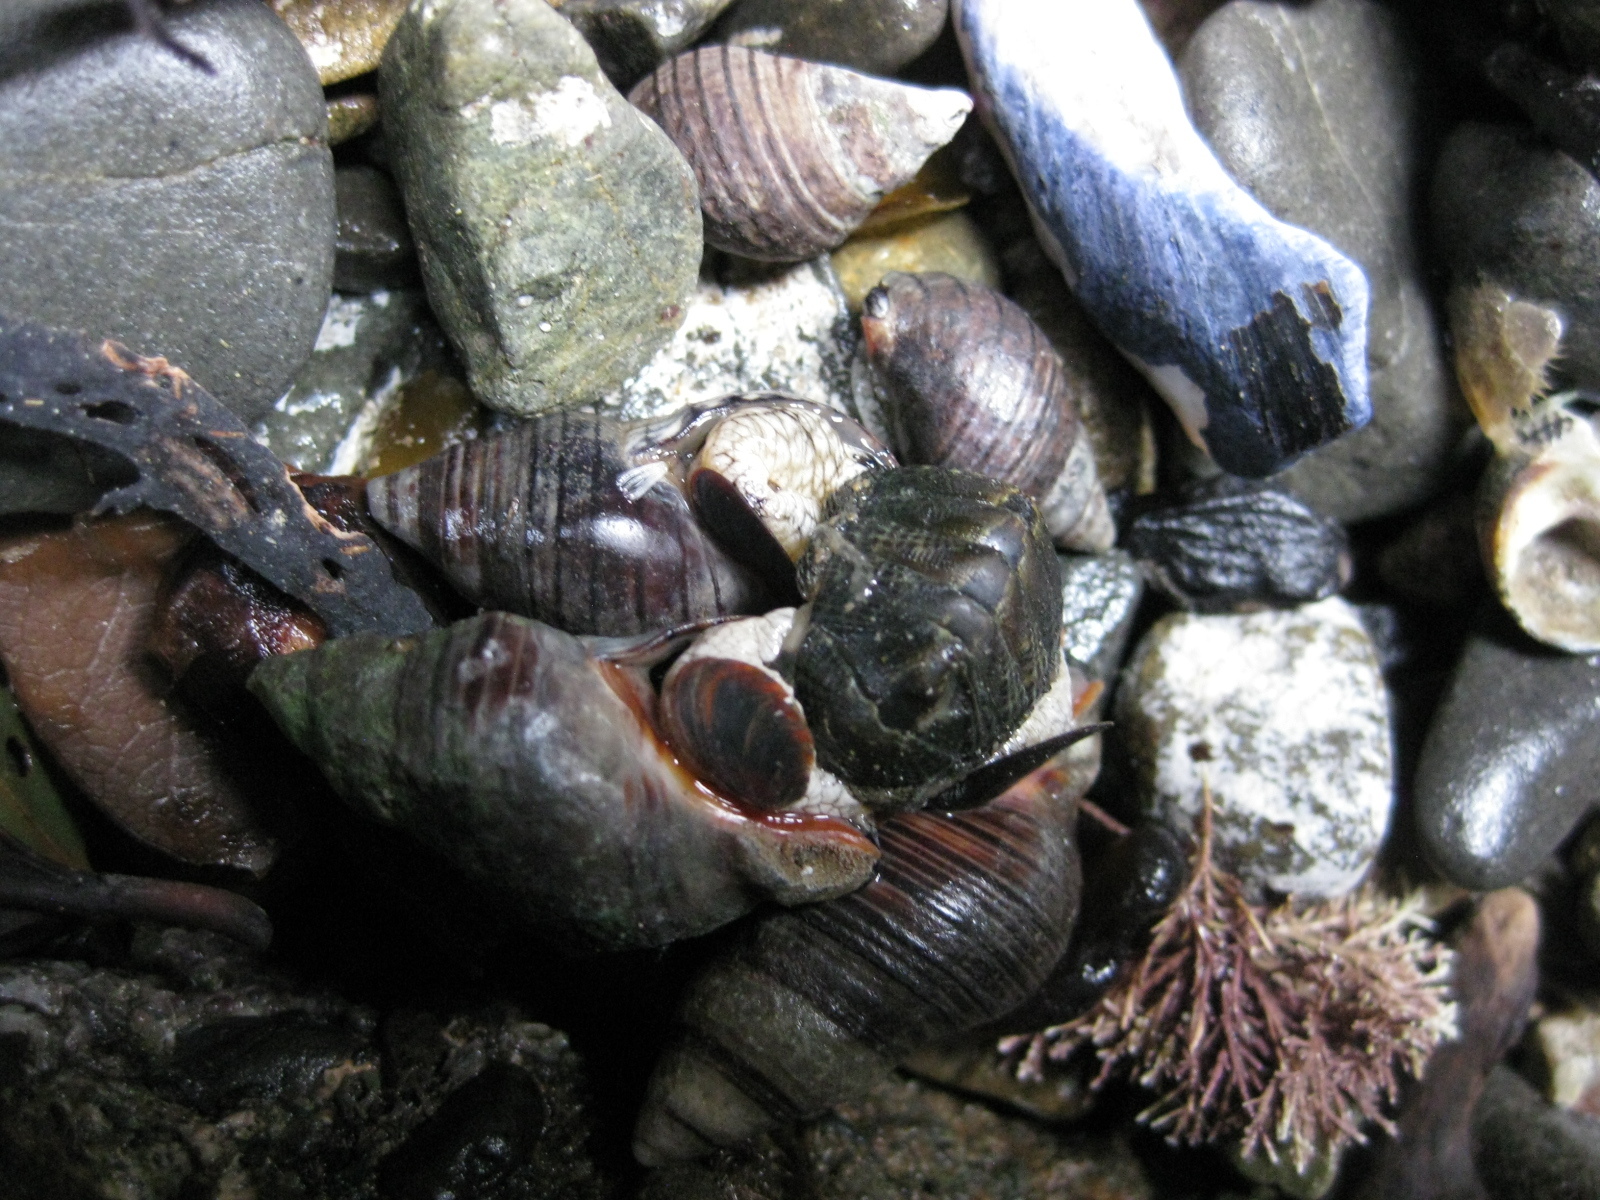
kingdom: Animalia
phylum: Mollusca
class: Gastropoda
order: Neogastropoda
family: Cominellidae
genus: Cominella
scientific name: Cominella virgata
